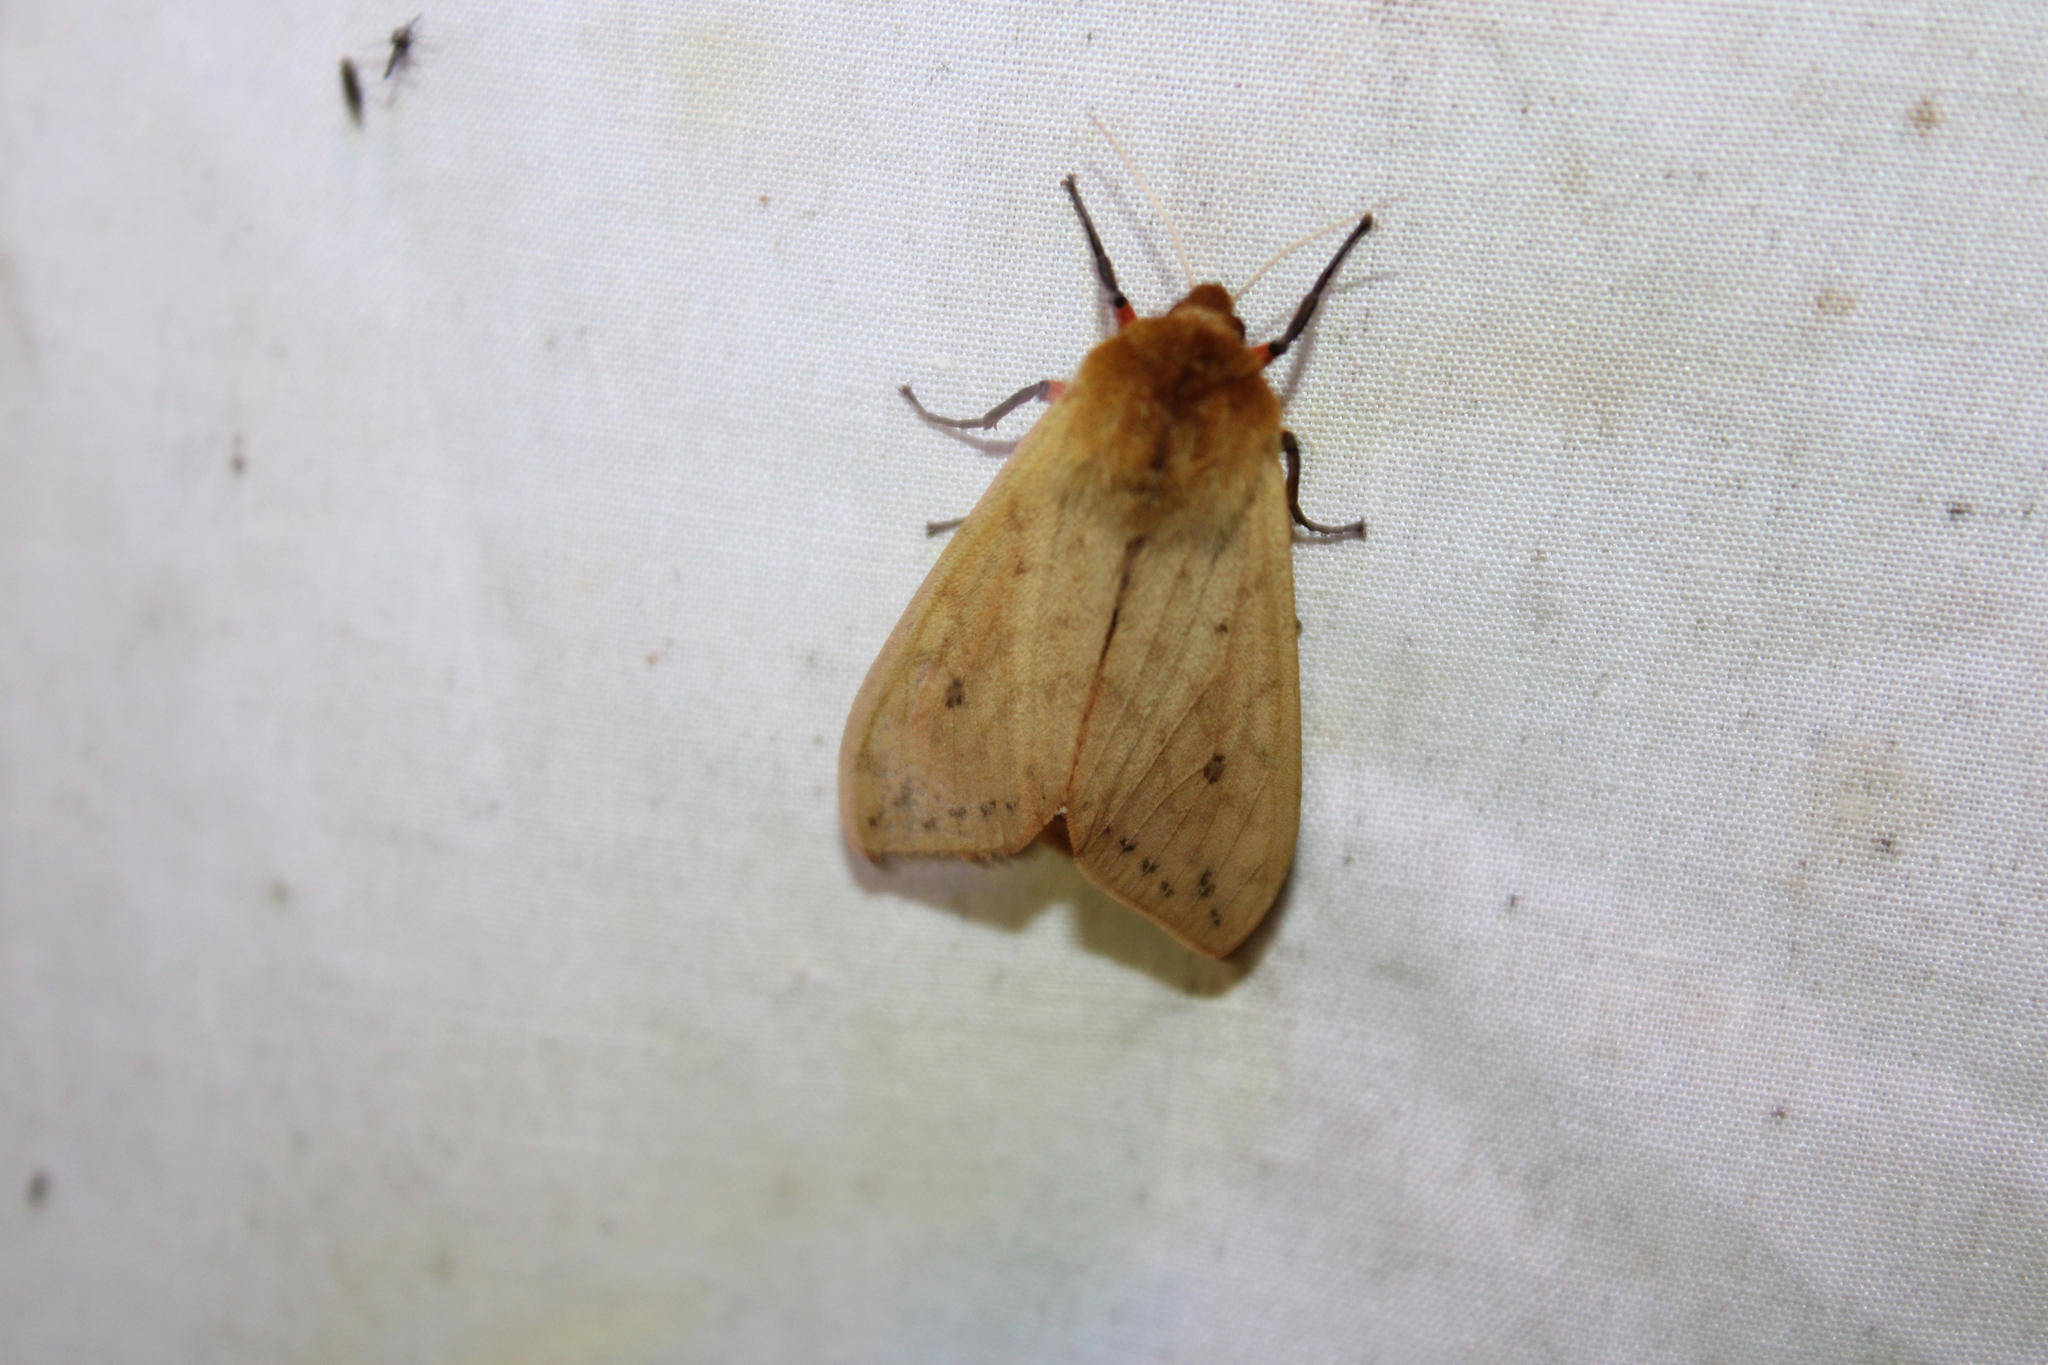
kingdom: Animalia
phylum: Arthropoda
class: Insecta
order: Lepidoptera
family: Erebidae
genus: Pyrrharctia
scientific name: Pyrrharctia isabella
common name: Isabella tiger moth
